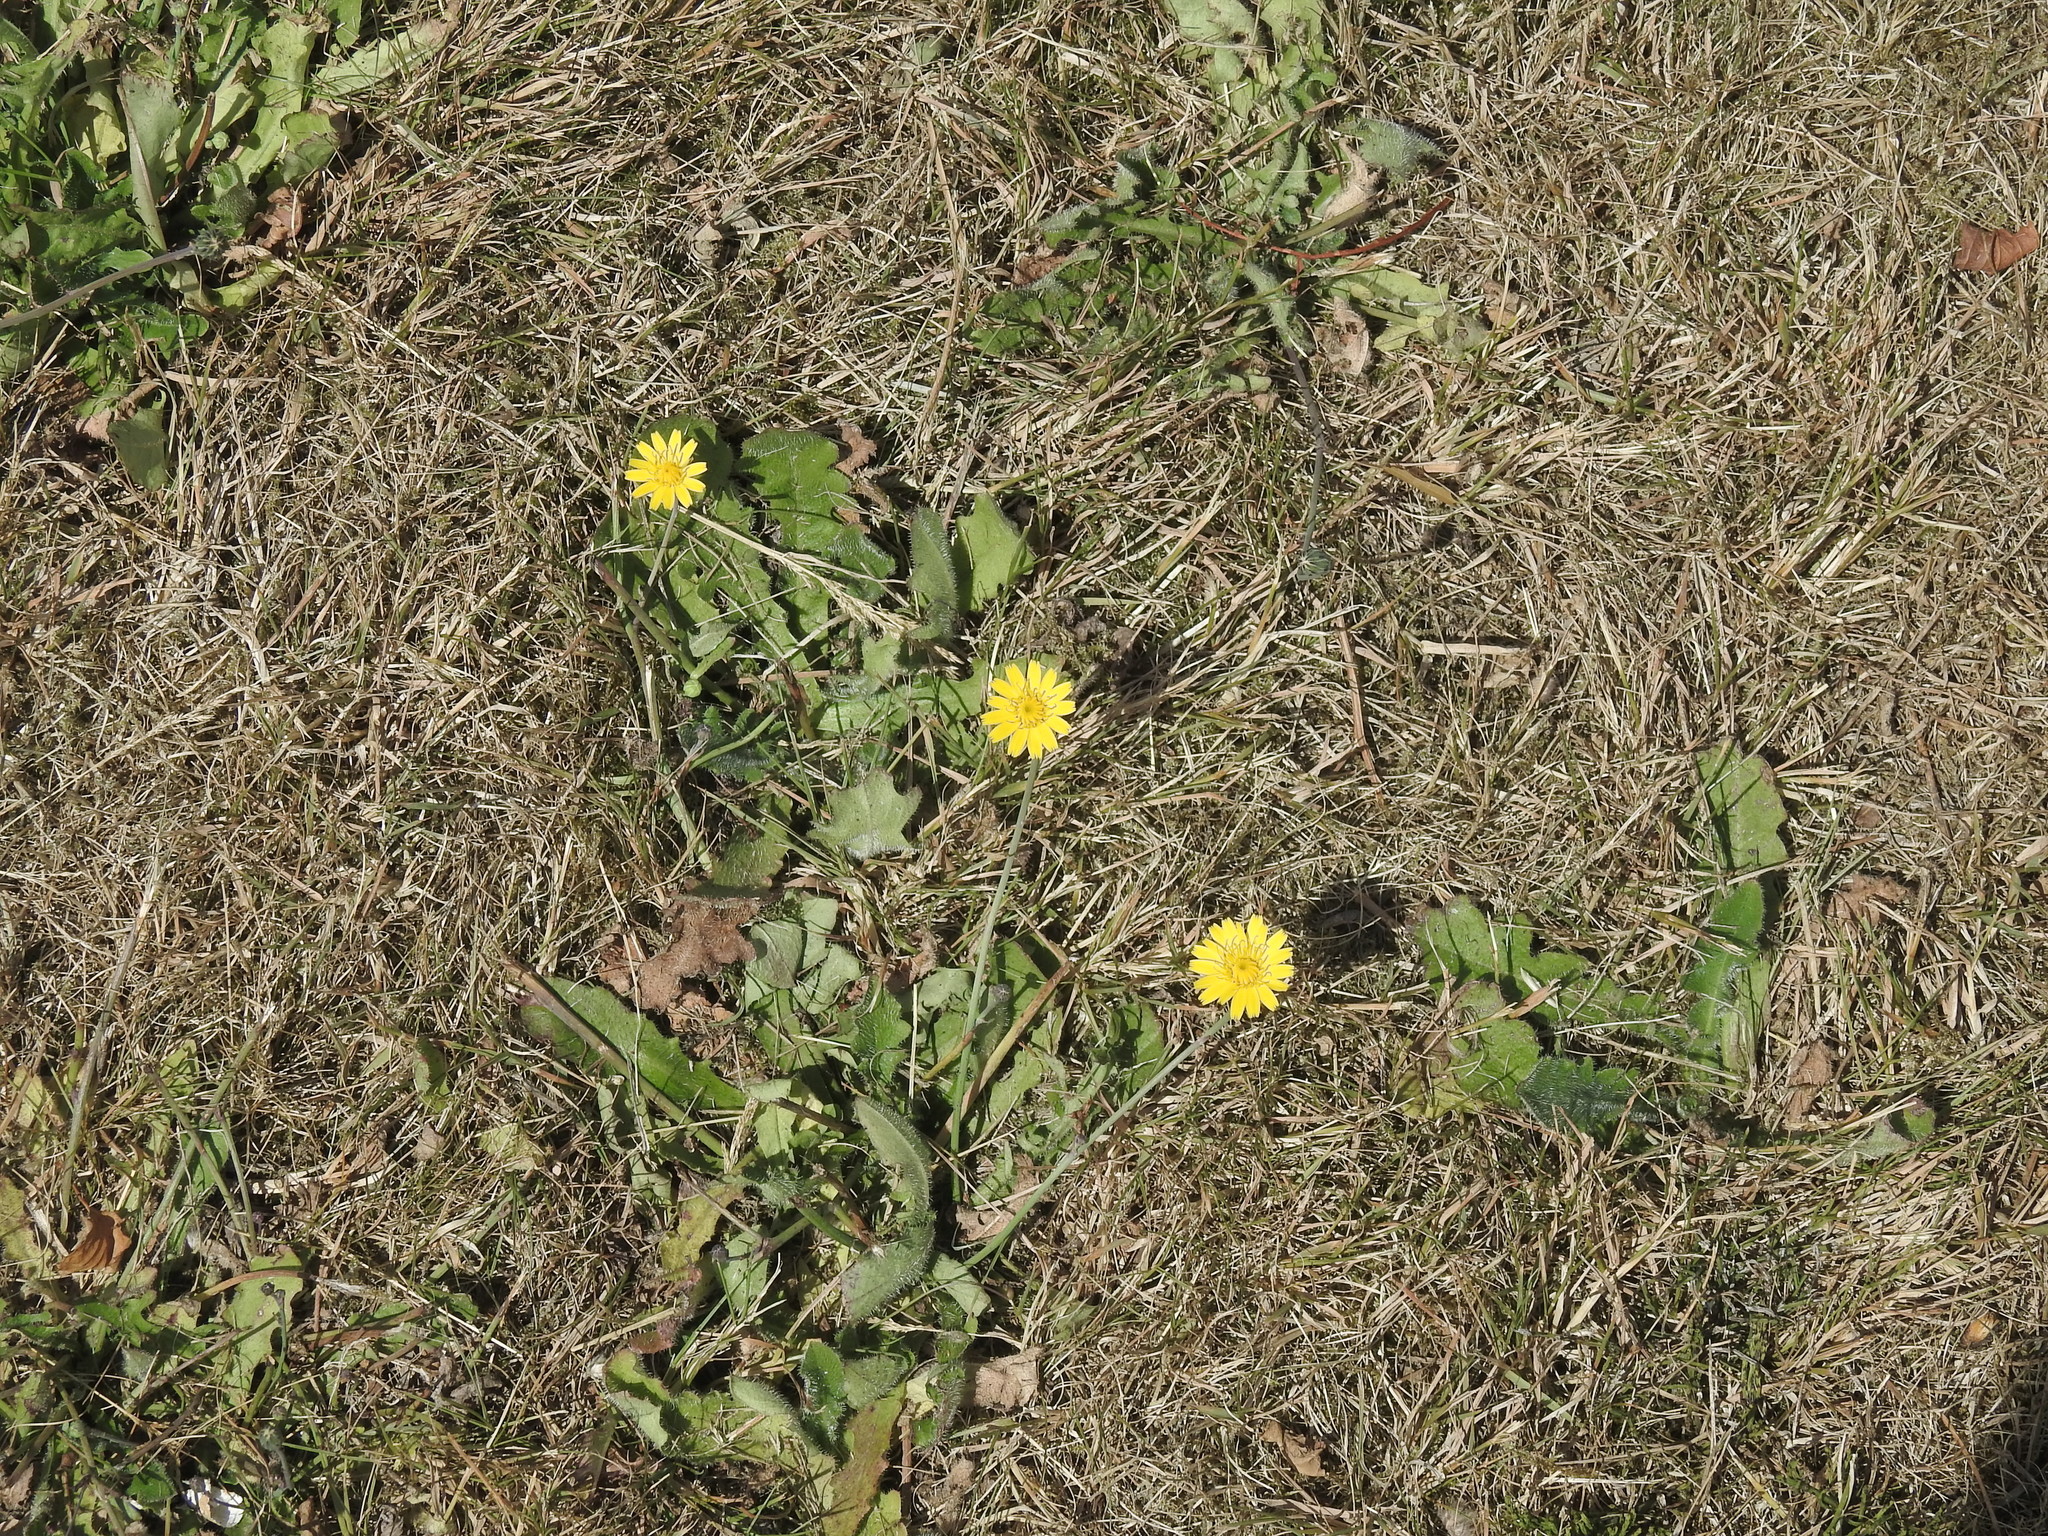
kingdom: Plantae
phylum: Tracheophyta
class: Magnoliopsida
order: Asterales
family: Asteraceae
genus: Pilosella
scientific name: Pilosella officinarum
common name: Mouse-ear hawkweed
